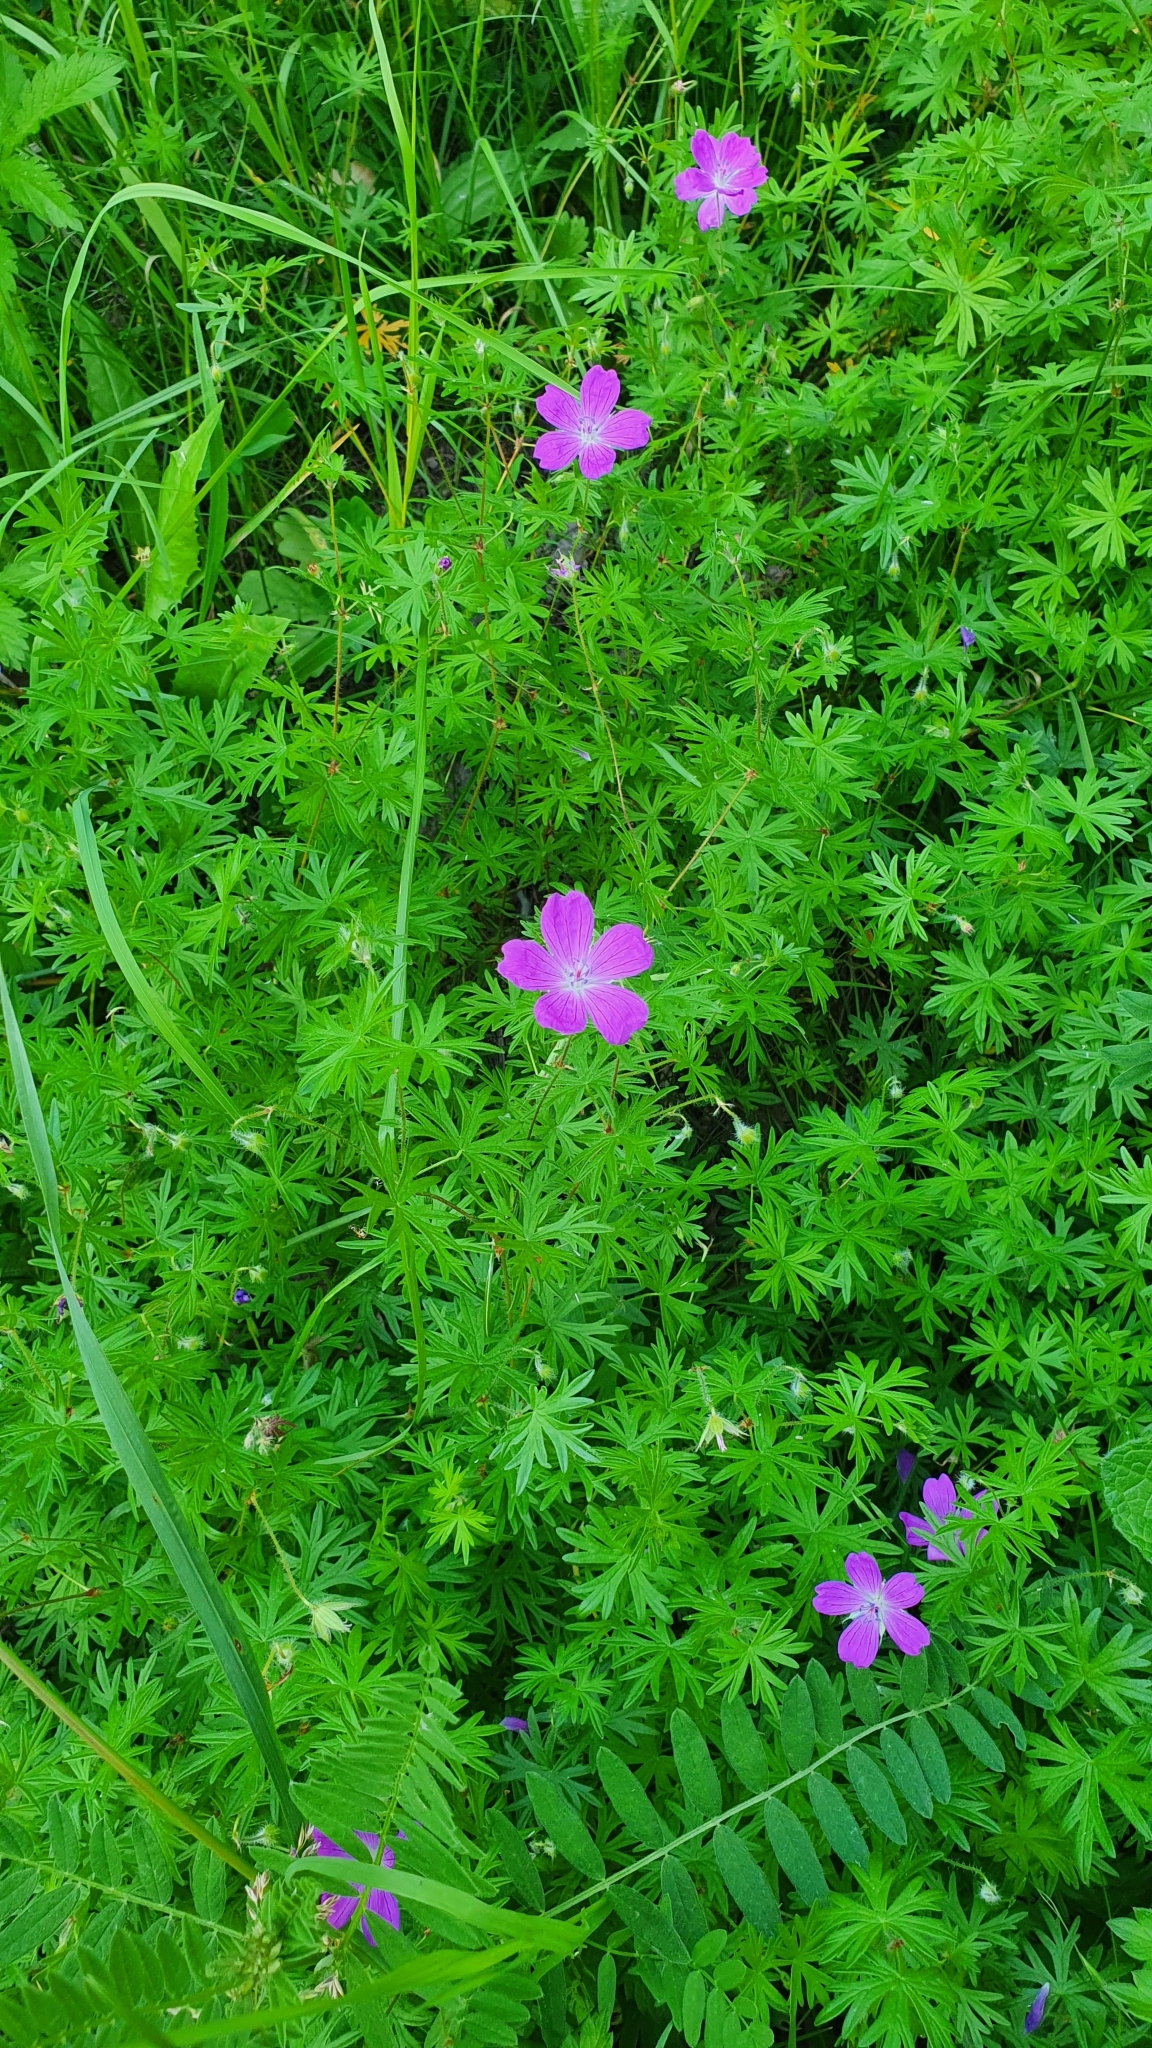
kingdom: Plantae
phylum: Tracheophyta
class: Magnoliopsida
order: Geraniales
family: Geraniaceae
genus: Geranium
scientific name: Geranium sanguineum
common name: Bloody crane's-bill
